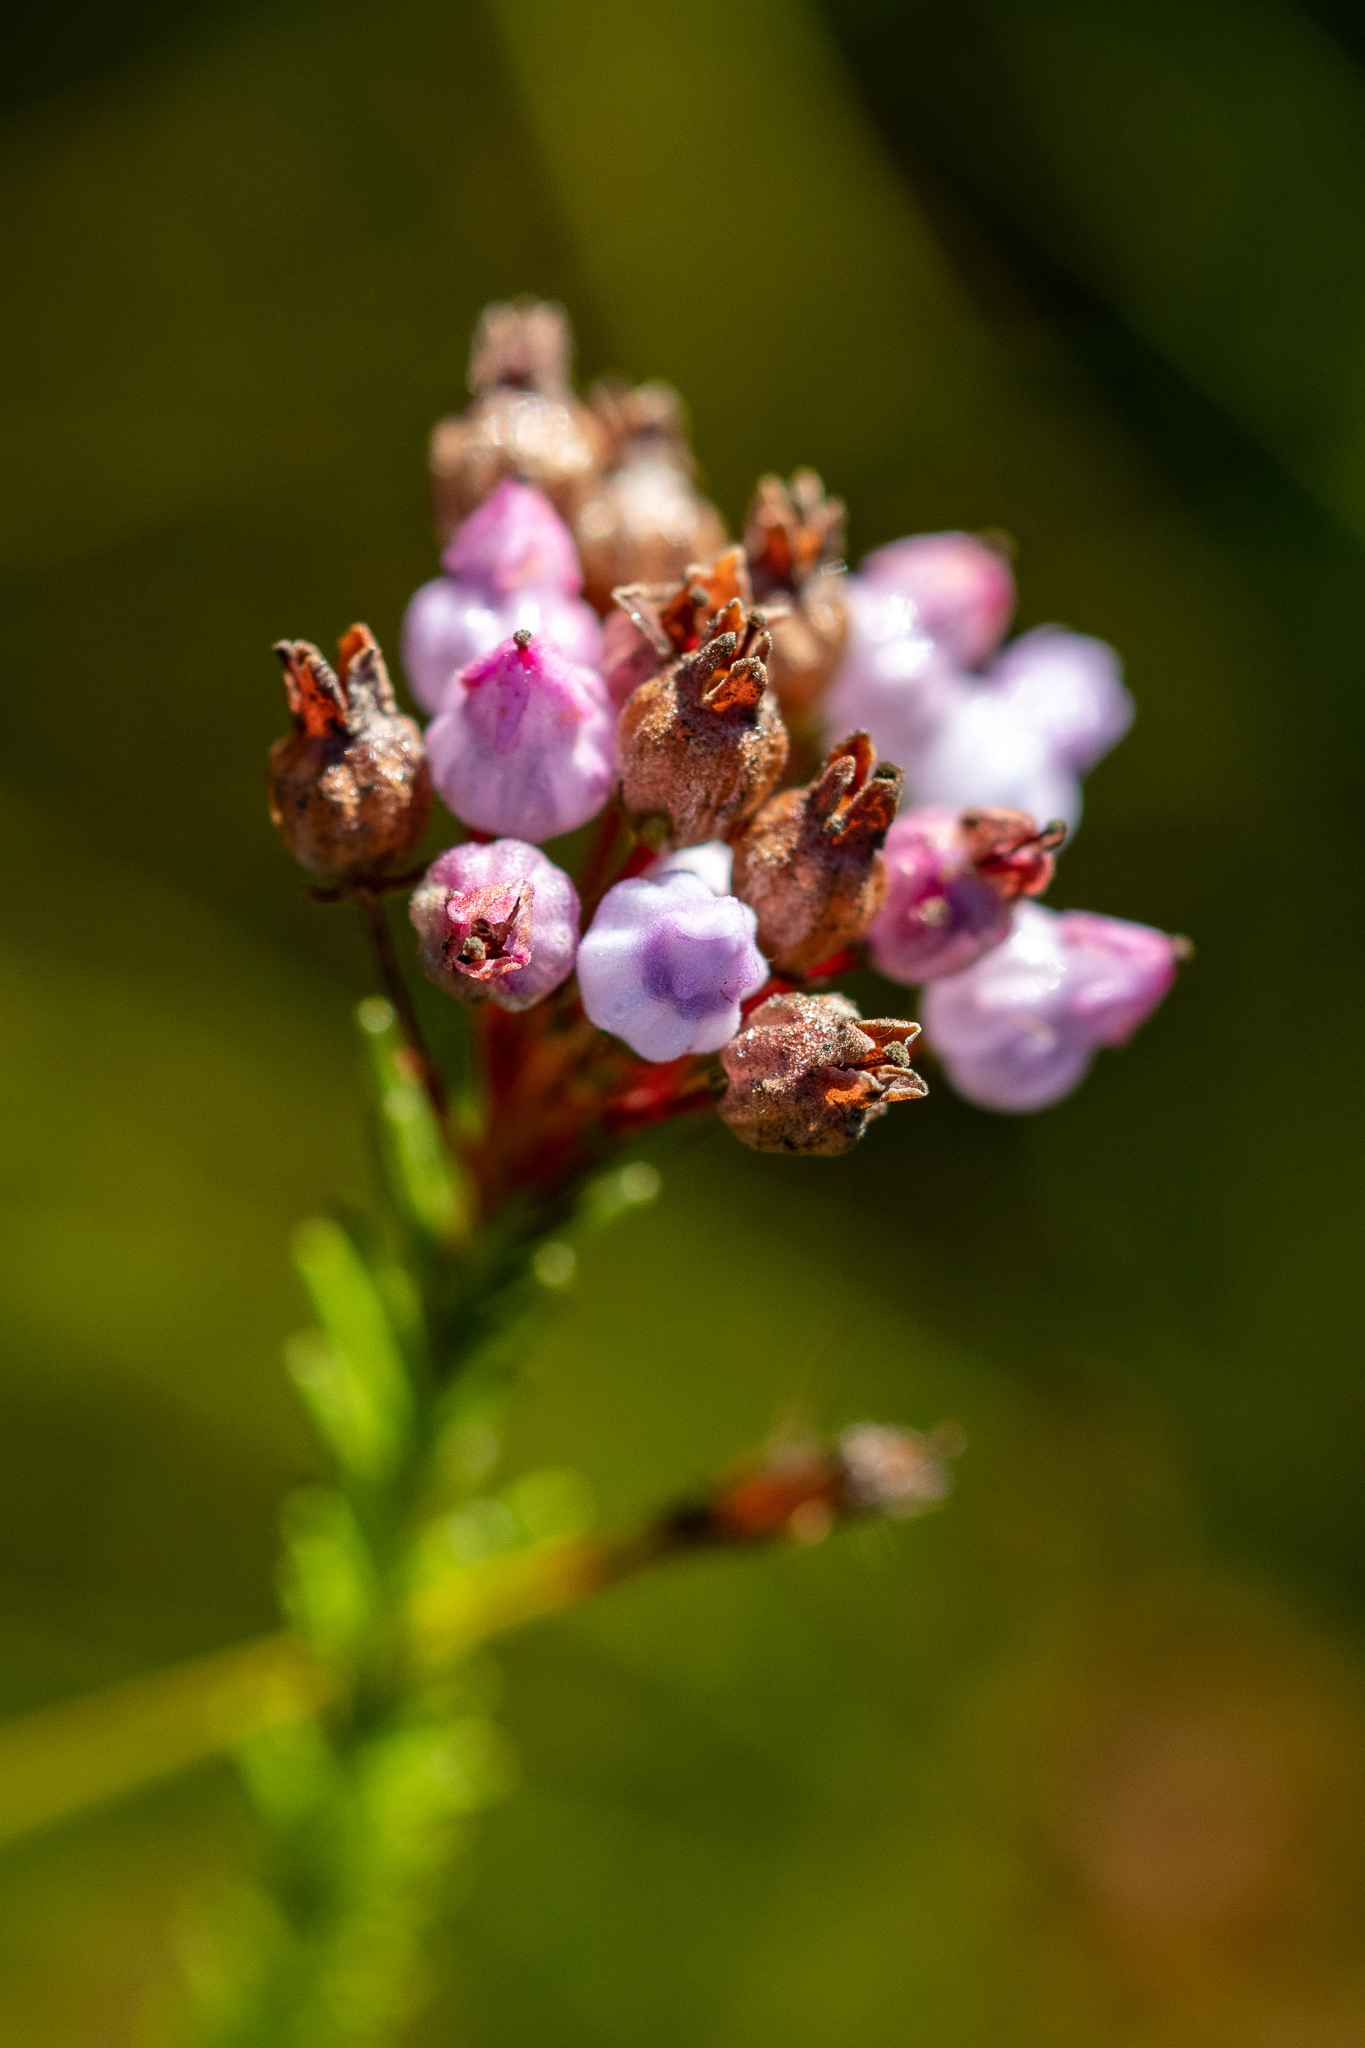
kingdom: Plantae
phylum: Tracheophyta
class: Magnoliopsida
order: Ericales
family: Ericaceae
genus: Erica
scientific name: Erica obliqua
